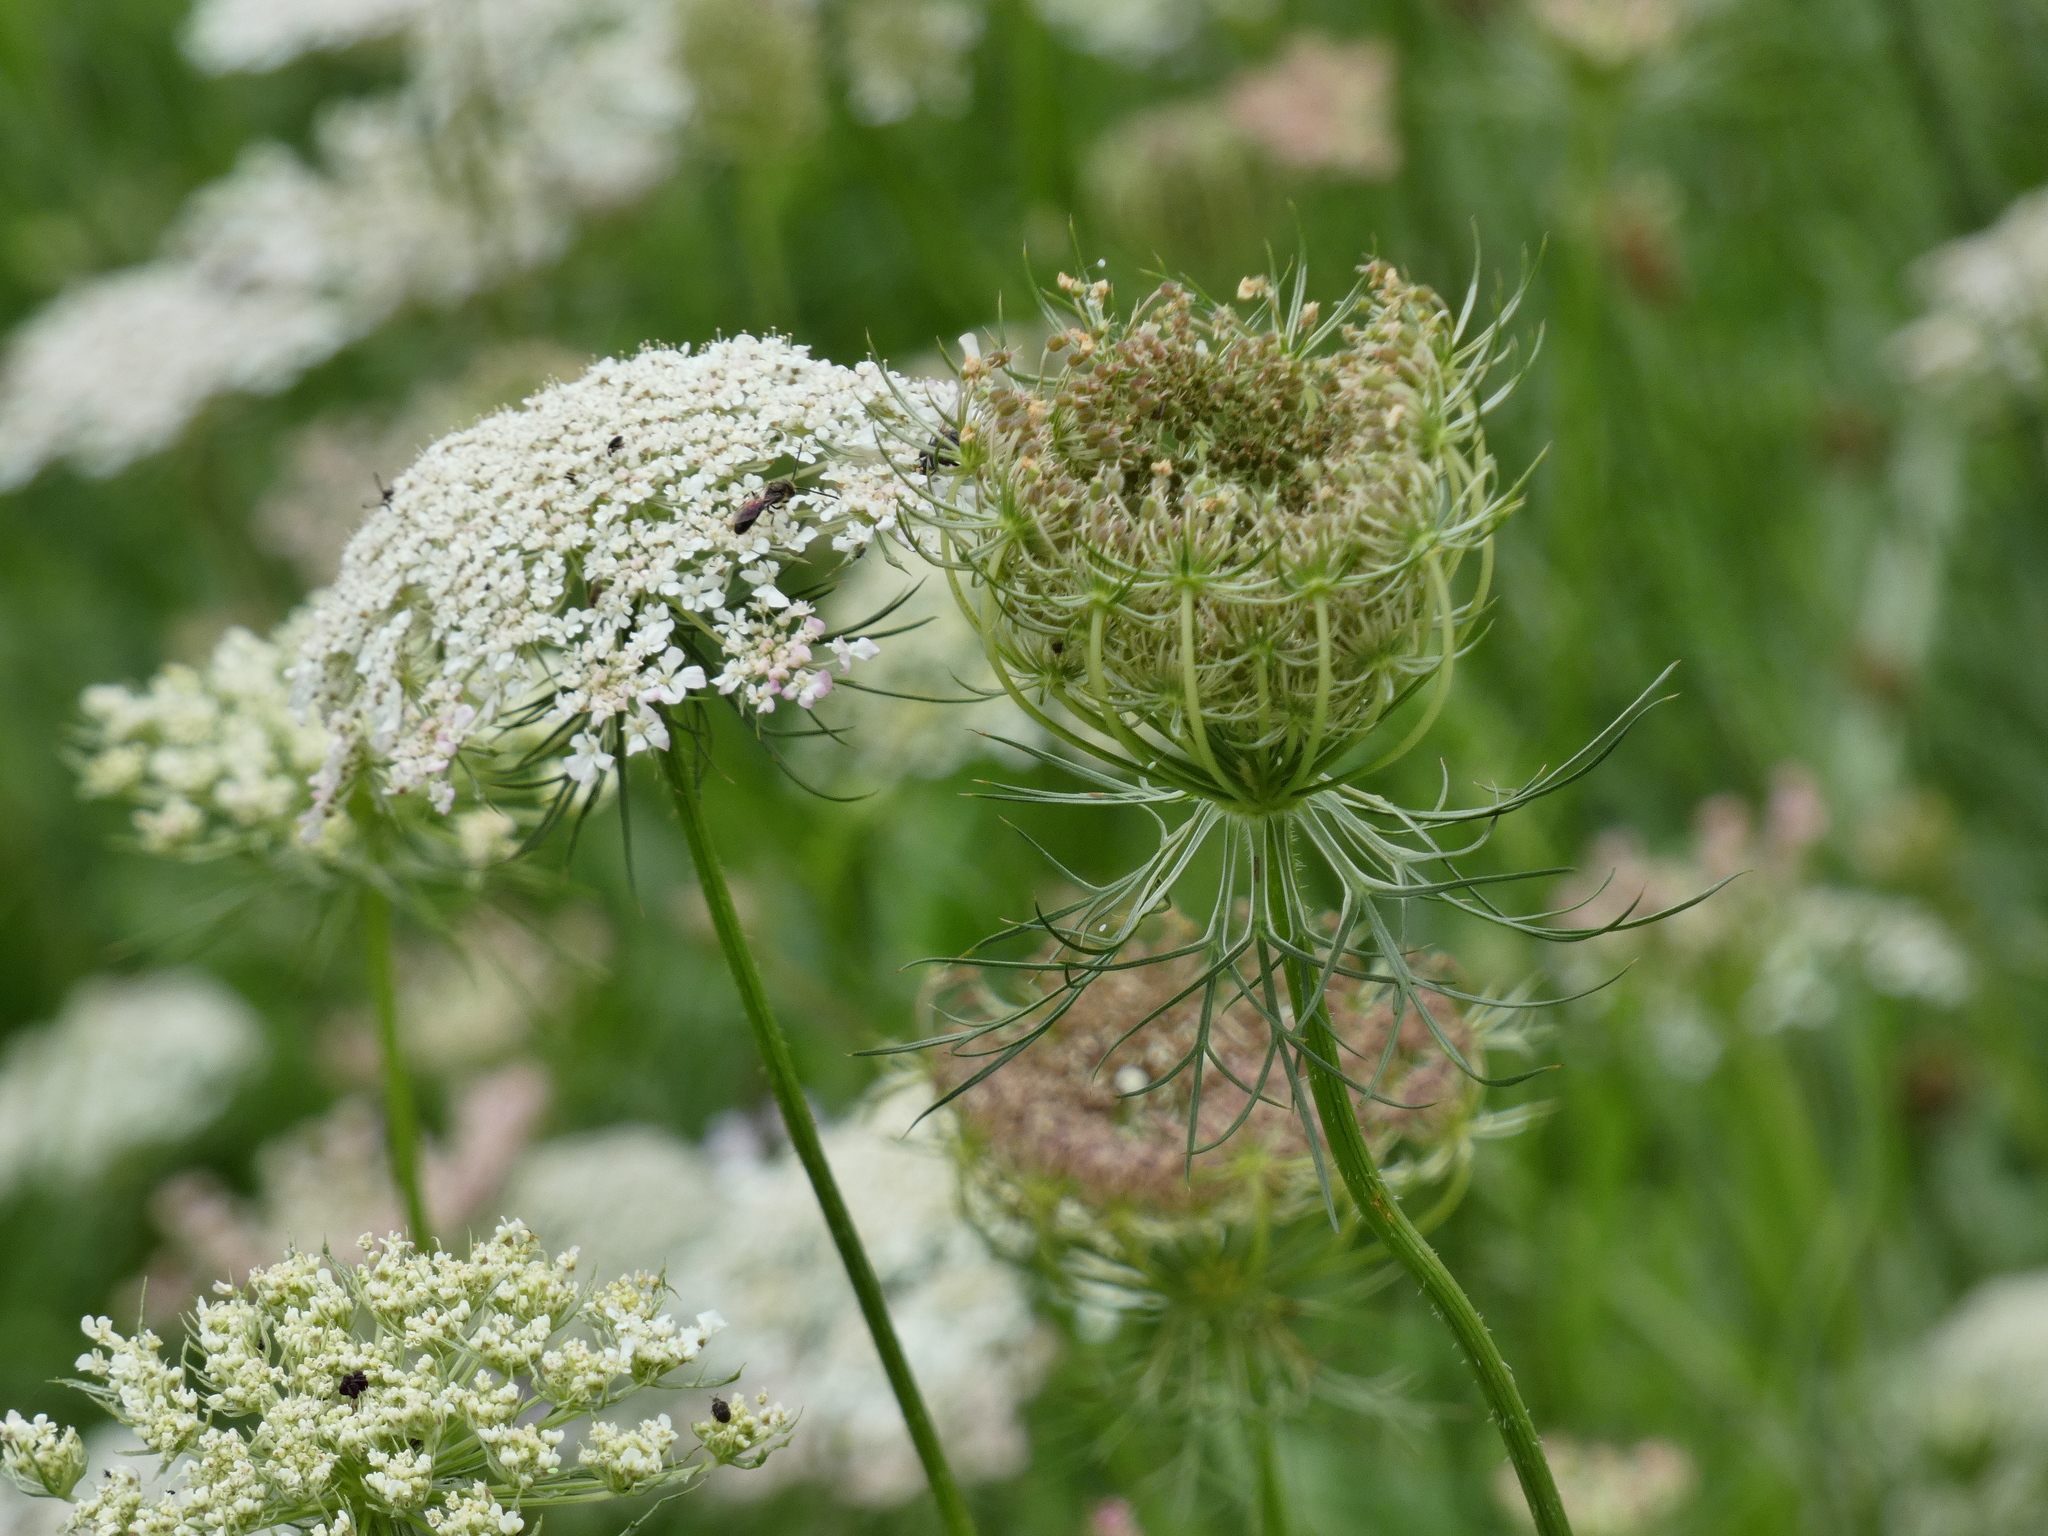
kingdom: Plantae
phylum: Tracheophyta
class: Magnoliopsida
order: Apiales
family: Apiaceae
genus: Daucus
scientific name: Daucus carota
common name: Wild carrot
